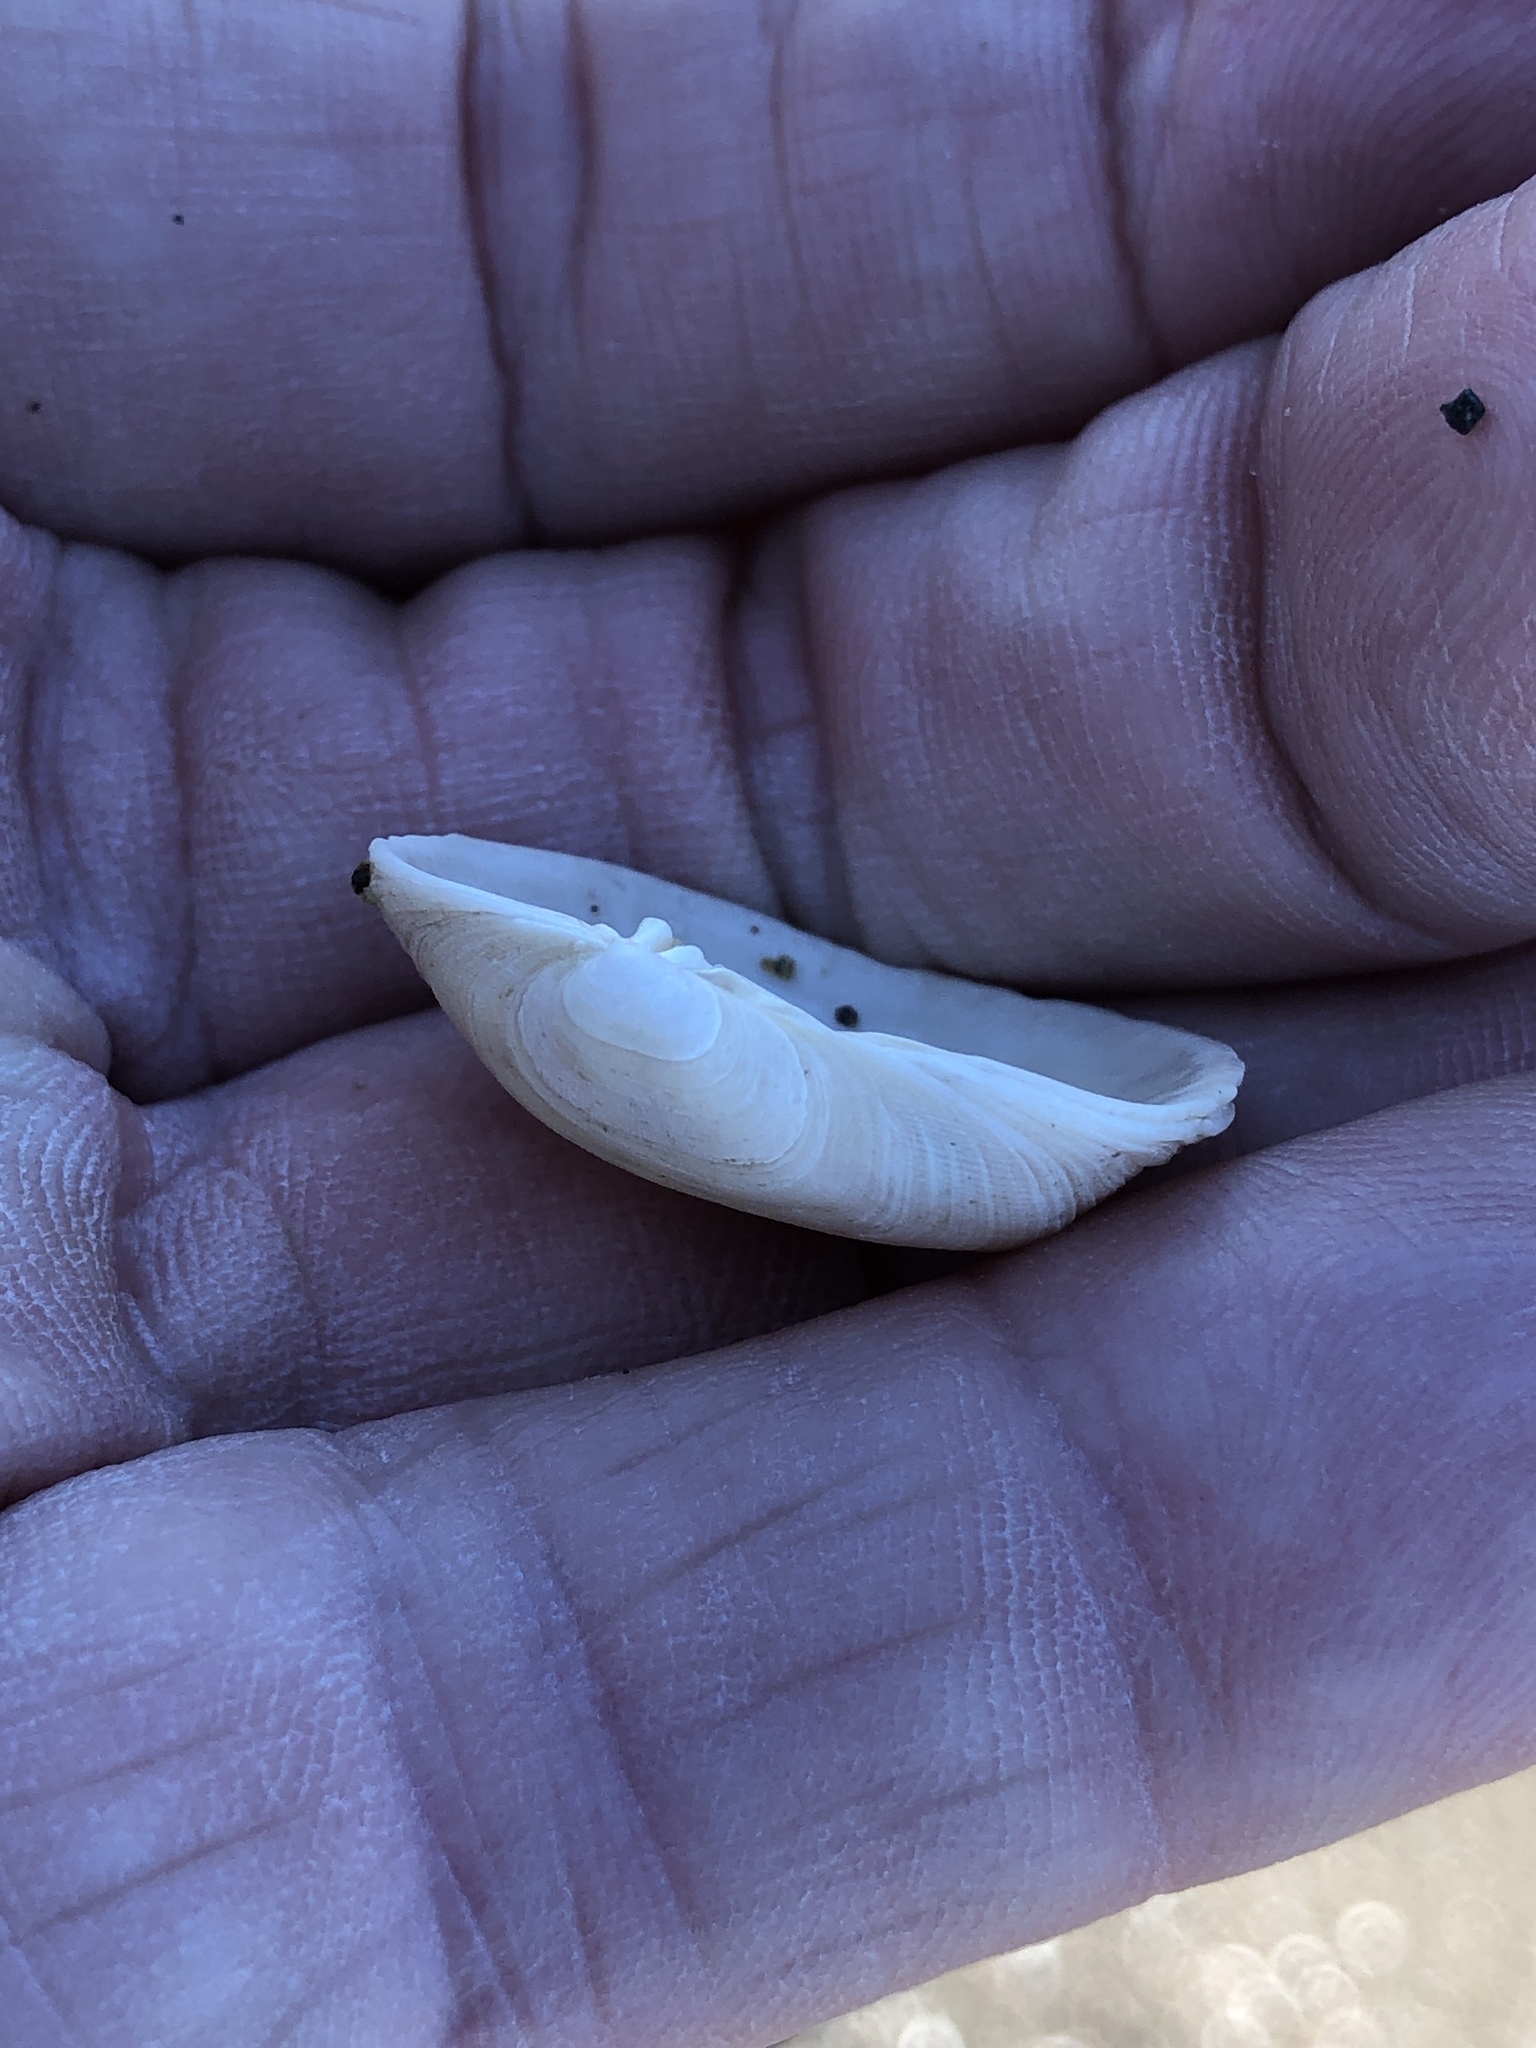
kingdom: Animalia
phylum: Mollusca
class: Bivalvia
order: Venerida
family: Veneridae
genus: Petricola
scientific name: Petricola carditoides
